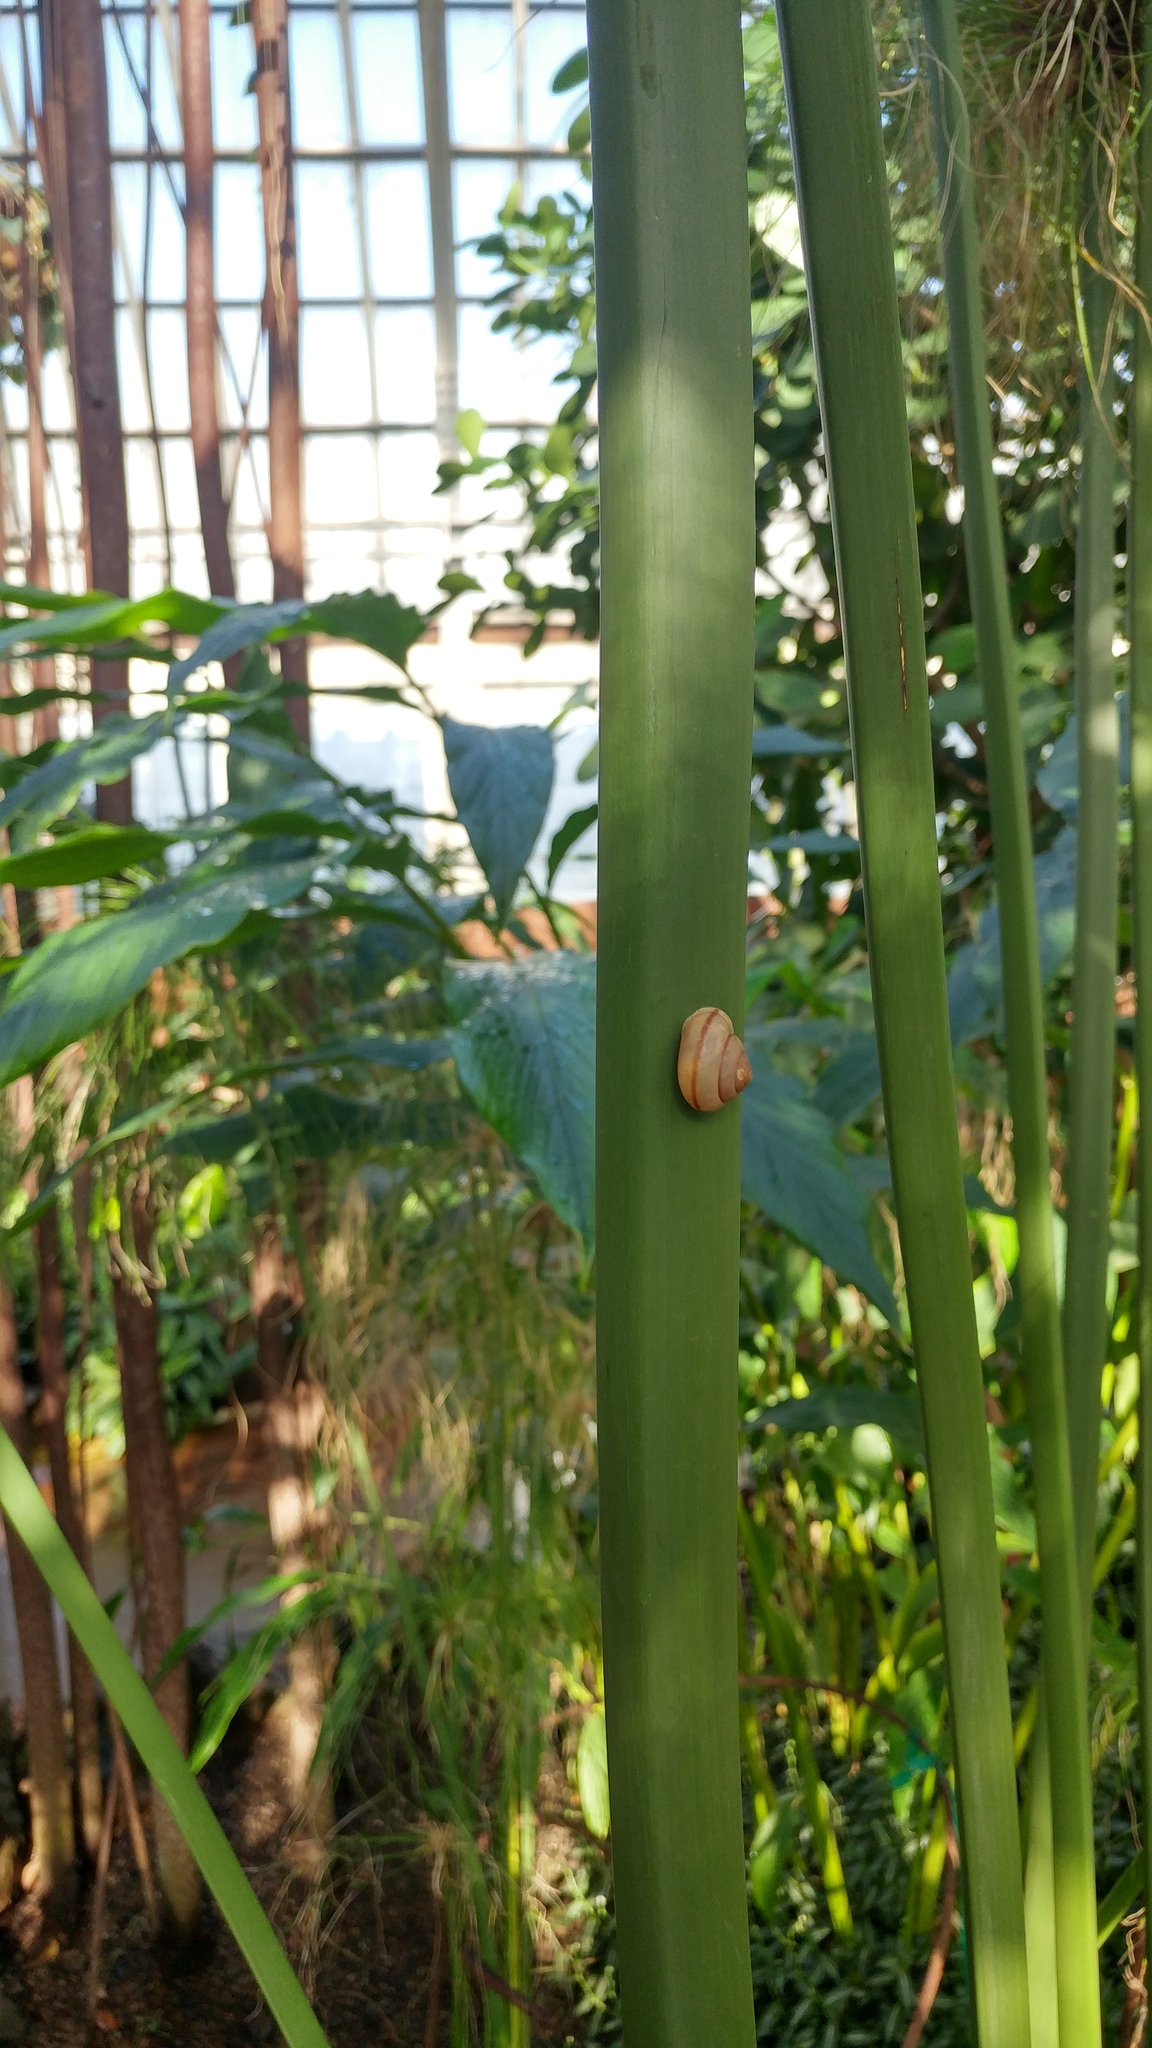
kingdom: Animalia
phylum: Mollusca
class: Gastropoda
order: Stylommatophora
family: Camaenidae
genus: Bradybaena
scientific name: Bradybaena similaris
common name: Asian trampsnail
